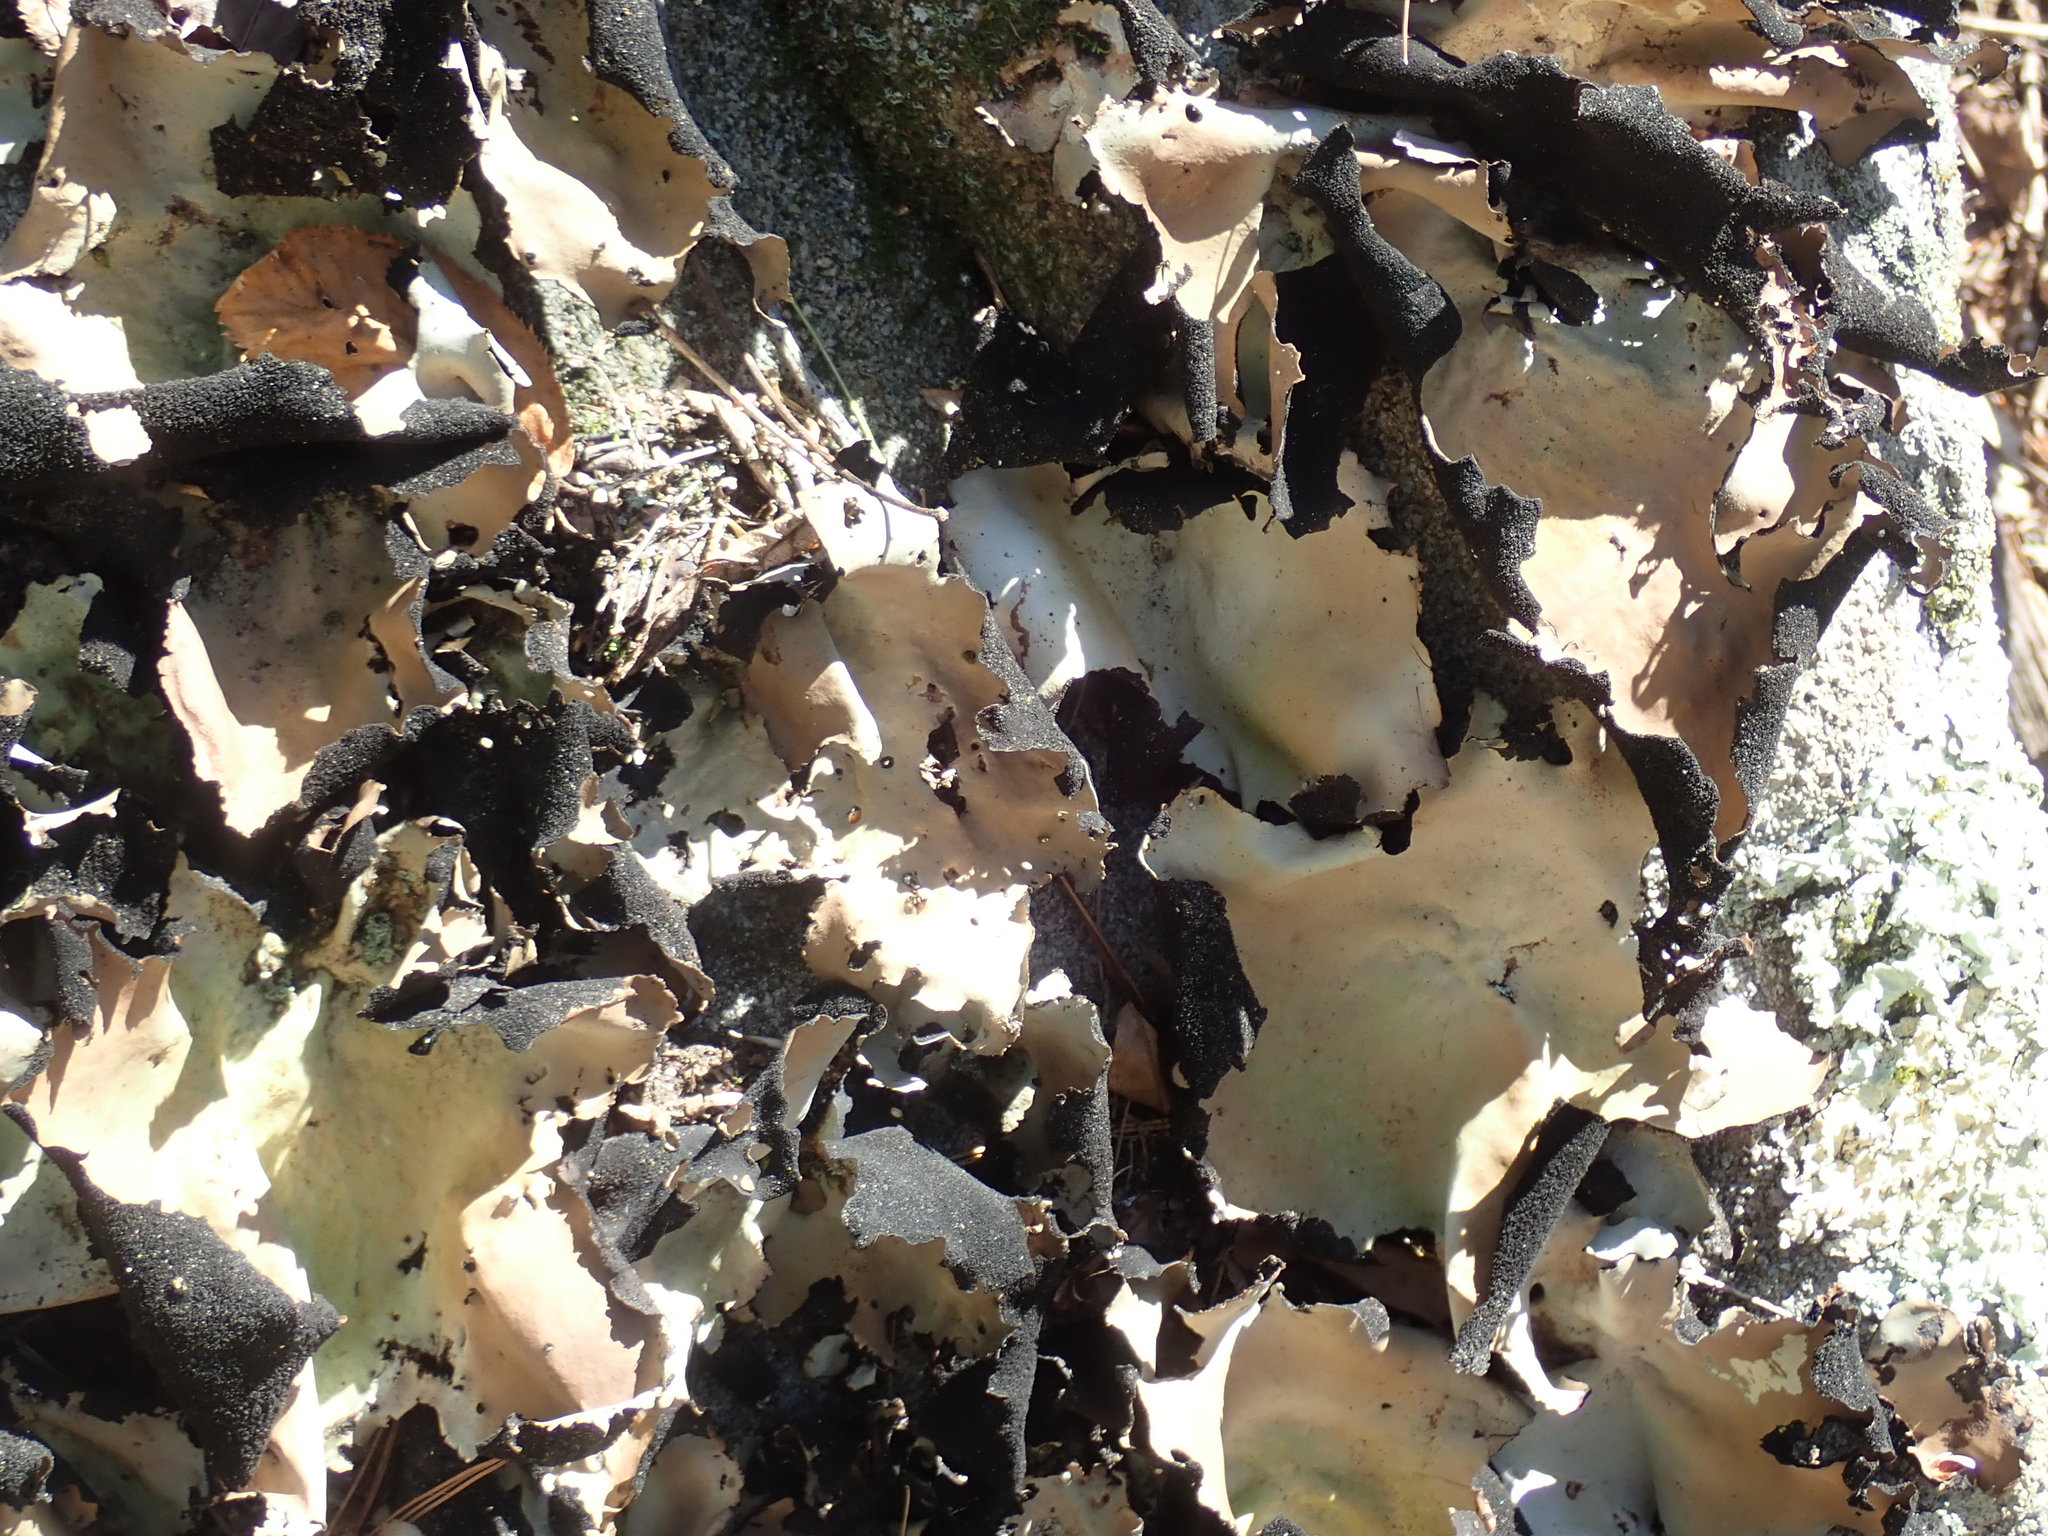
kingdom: Fungi
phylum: Ascomycota
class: Lecanoromycetes
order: Umbilicariales
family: Umbilicariaceae
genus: Umbilicaria
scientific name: Umbilicaria mammulata
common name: Smooth rock tripe
